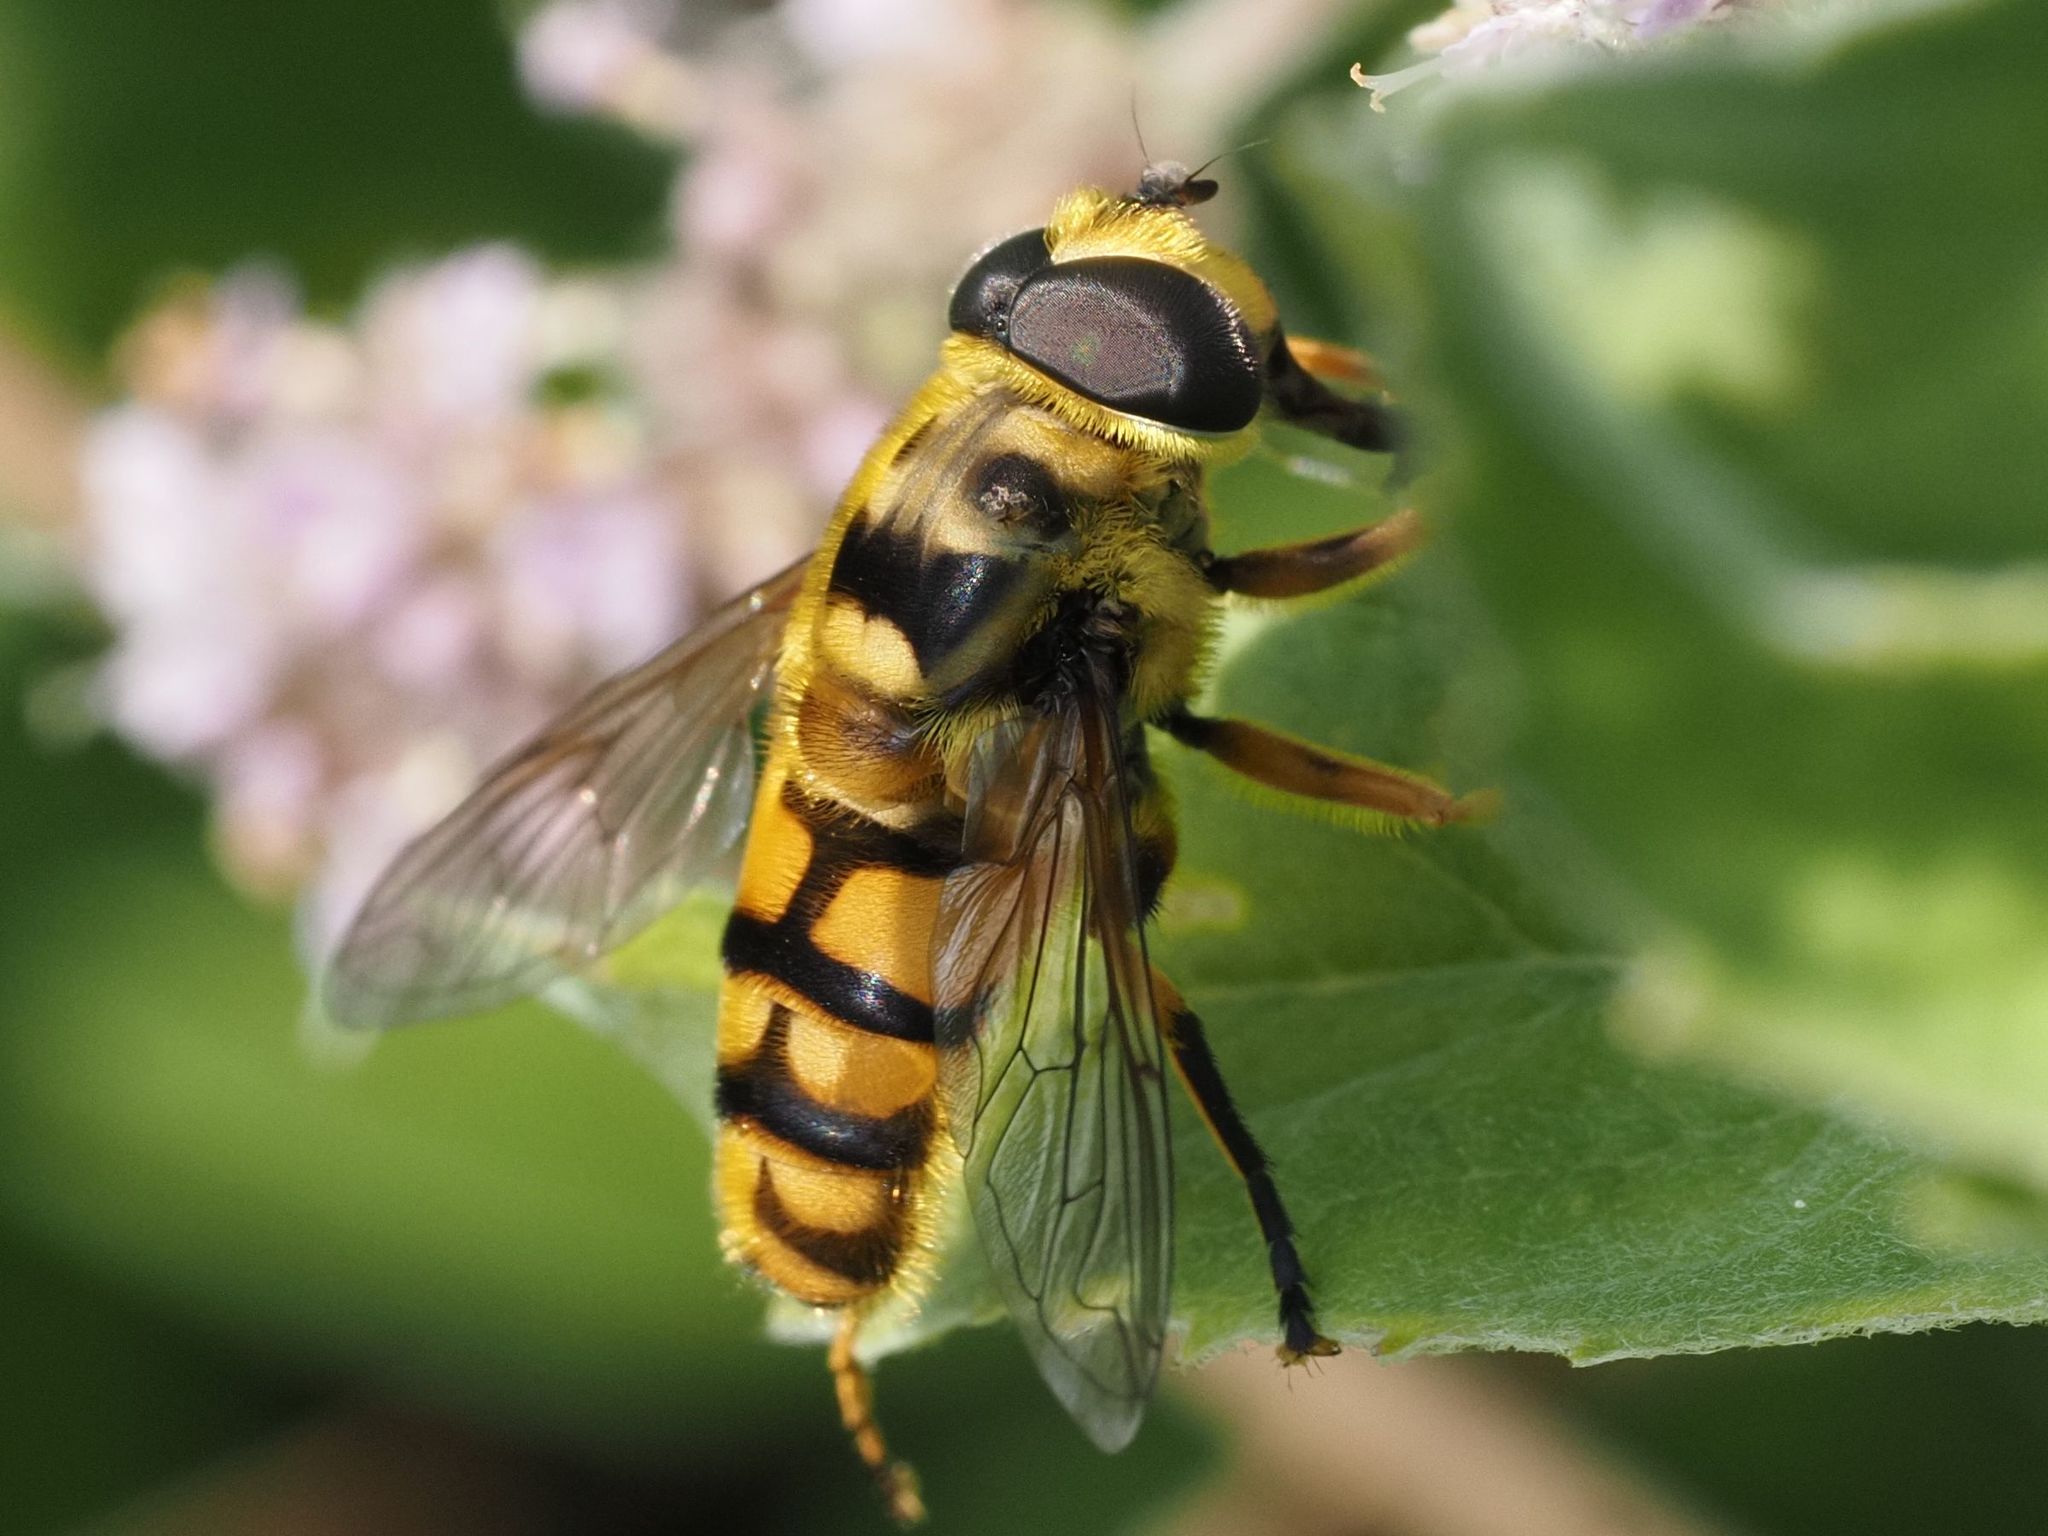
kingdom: Animalia
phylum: Arthropoda
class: Insecta
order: Diptera
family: Syrphidae
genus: Myathropa
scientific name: Myathropa florea
